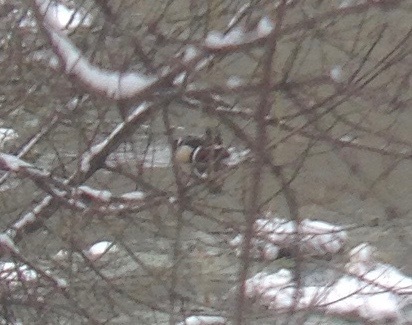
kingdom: Animalia
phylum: Chordata
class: Aves
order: Anseriformes
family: Anatidae
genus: Aix
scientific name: Aix sponsa
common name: Wood duck
